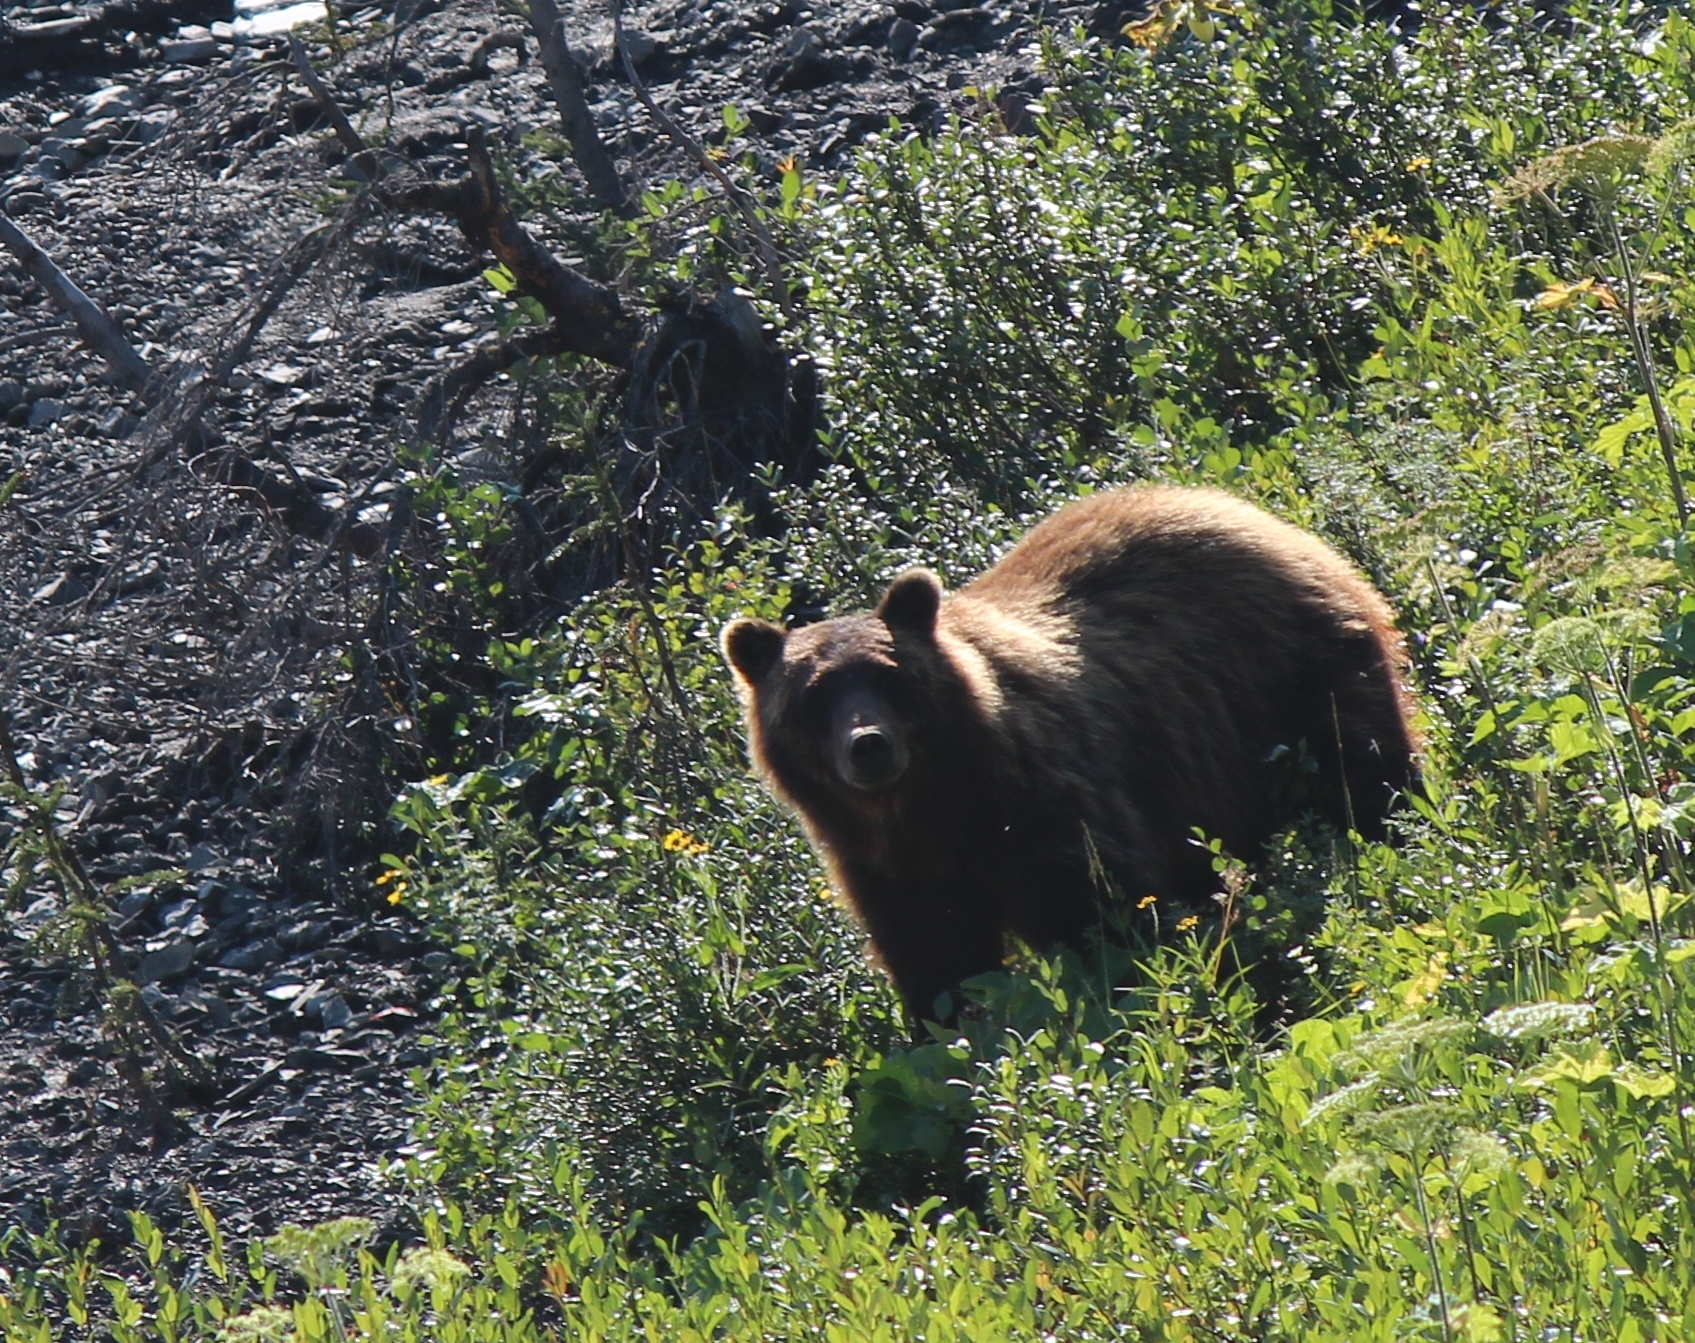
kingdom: Animalia
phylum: Chordata
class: Mammalia
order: Carnivora
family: Ursidae
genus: Ursus
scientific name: Ursus arctos
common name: Brown bear
